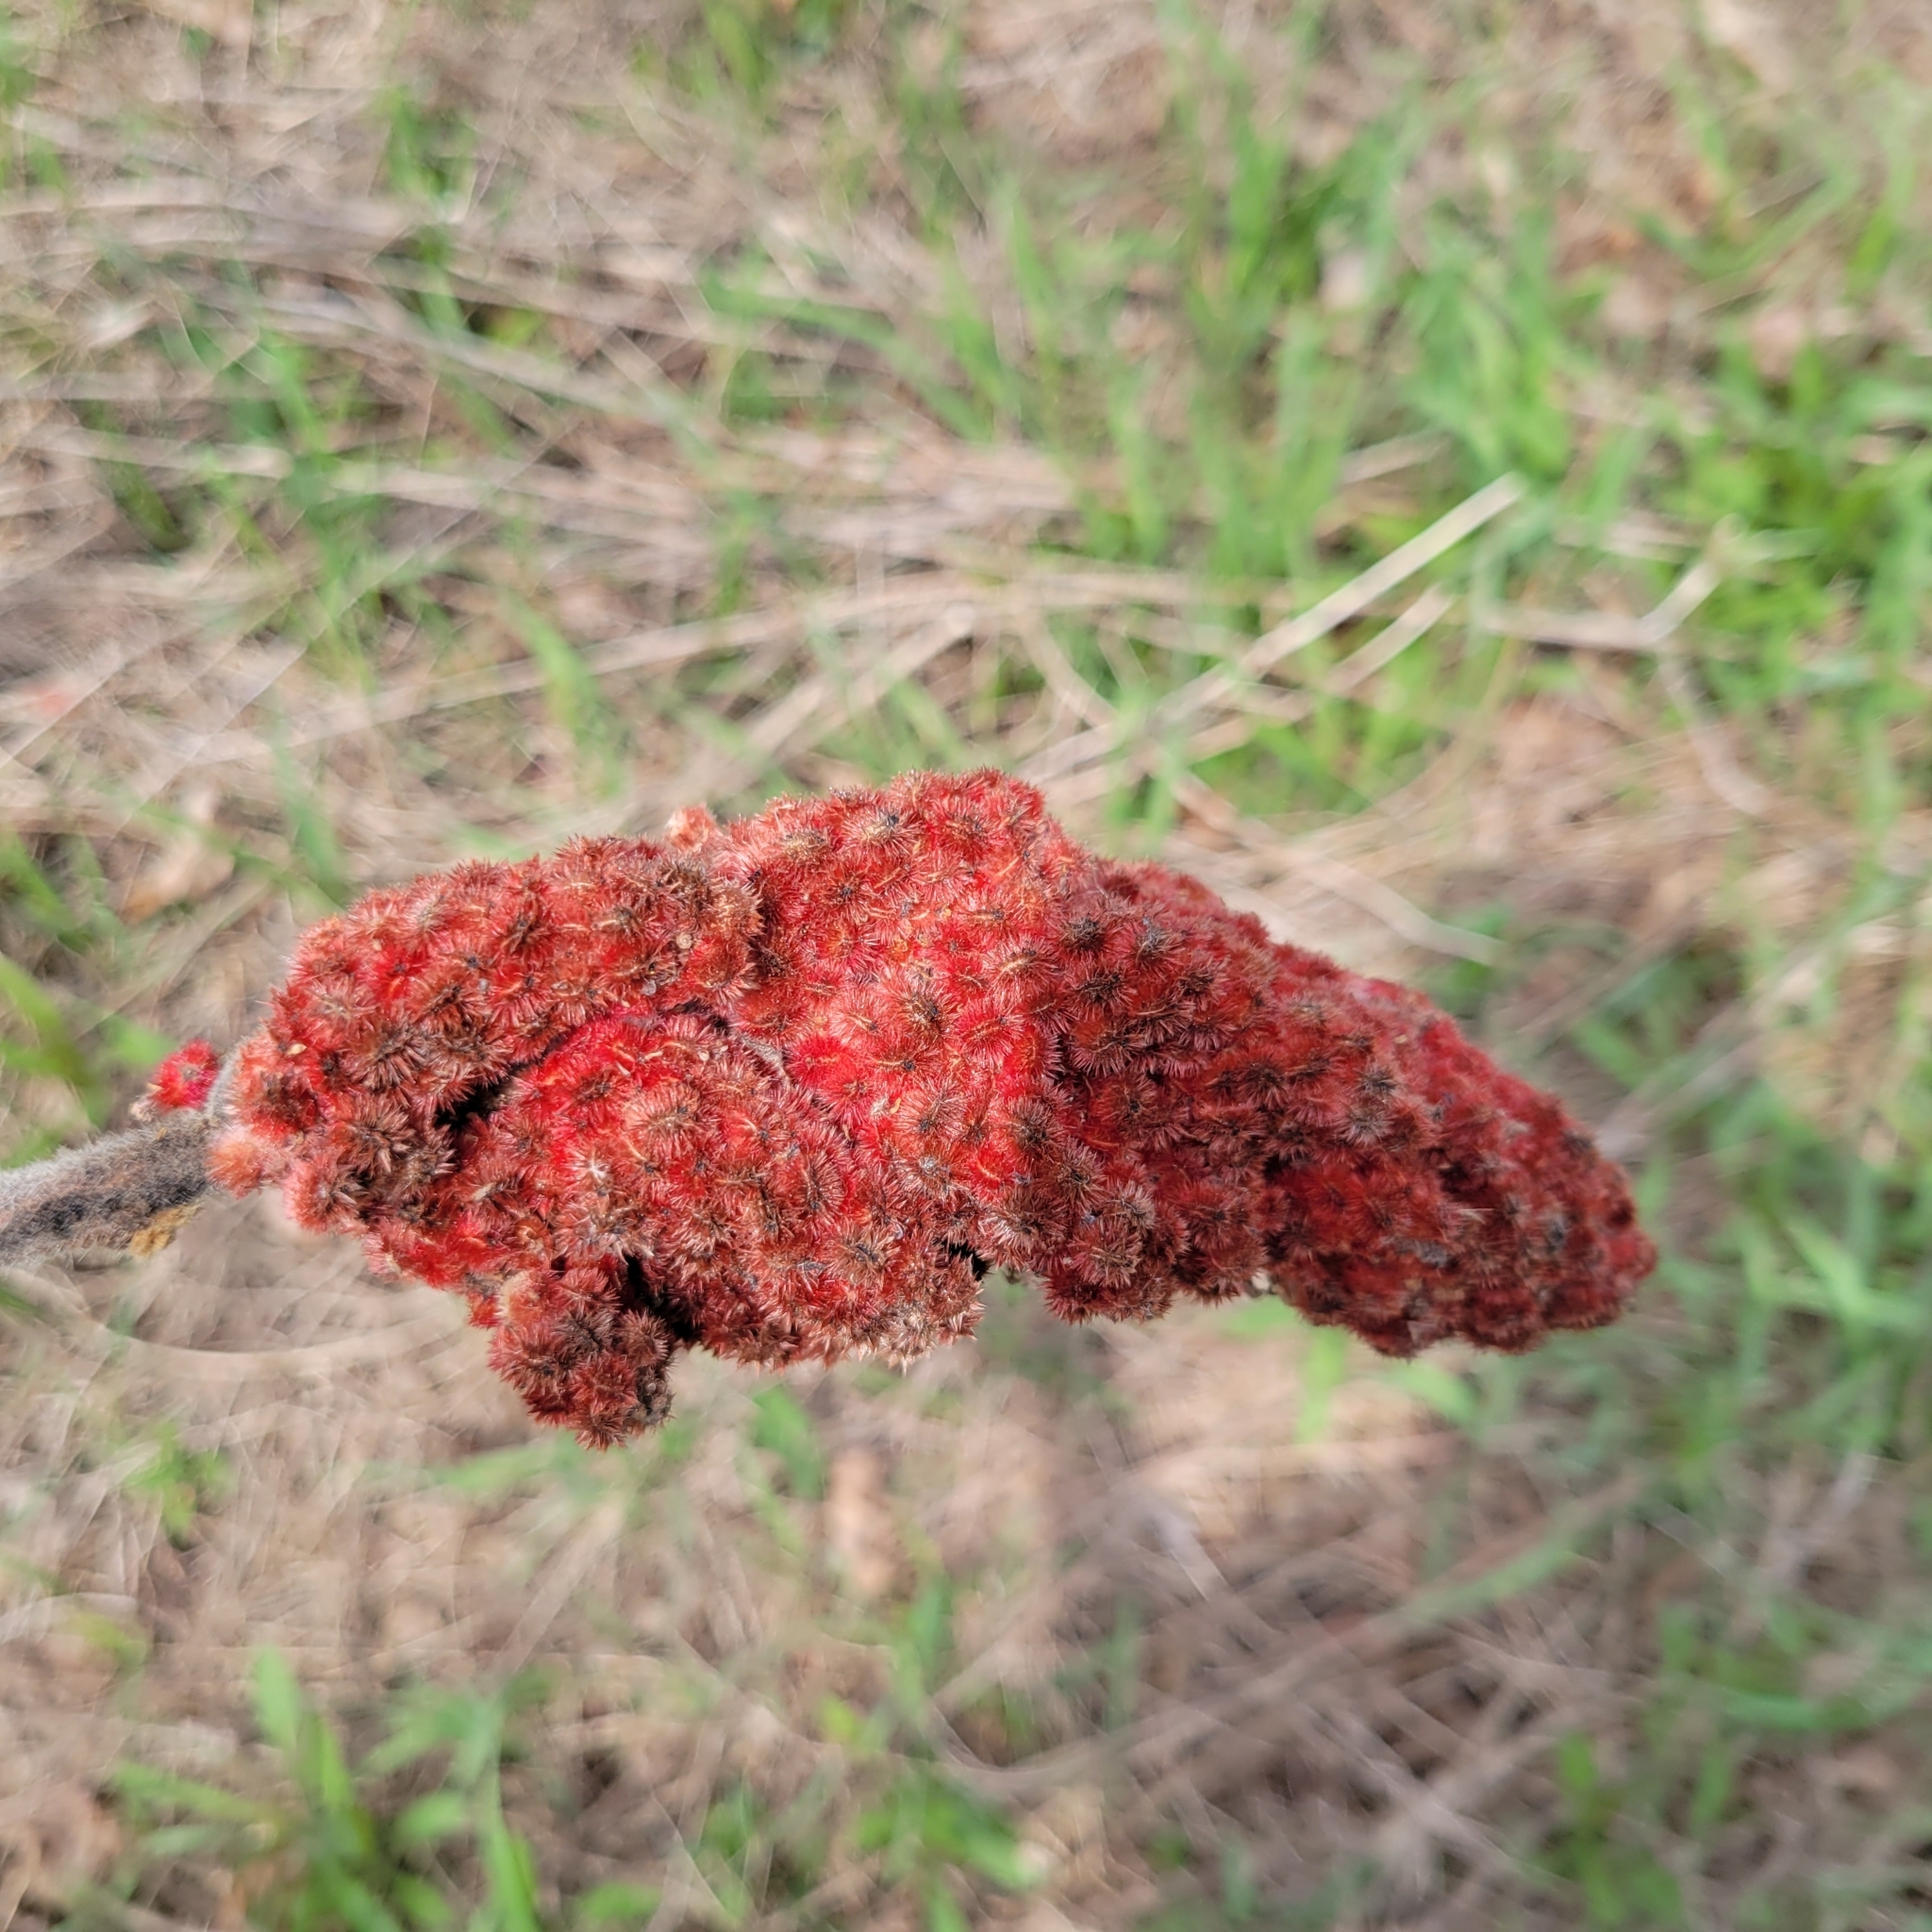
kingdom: Plantae
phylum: Tracheophyta
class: Magnoliopsida
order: Sapindales
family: Anacardiaceae
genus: Rhus
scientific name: Rhus typhina
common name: Staghorn sumac
